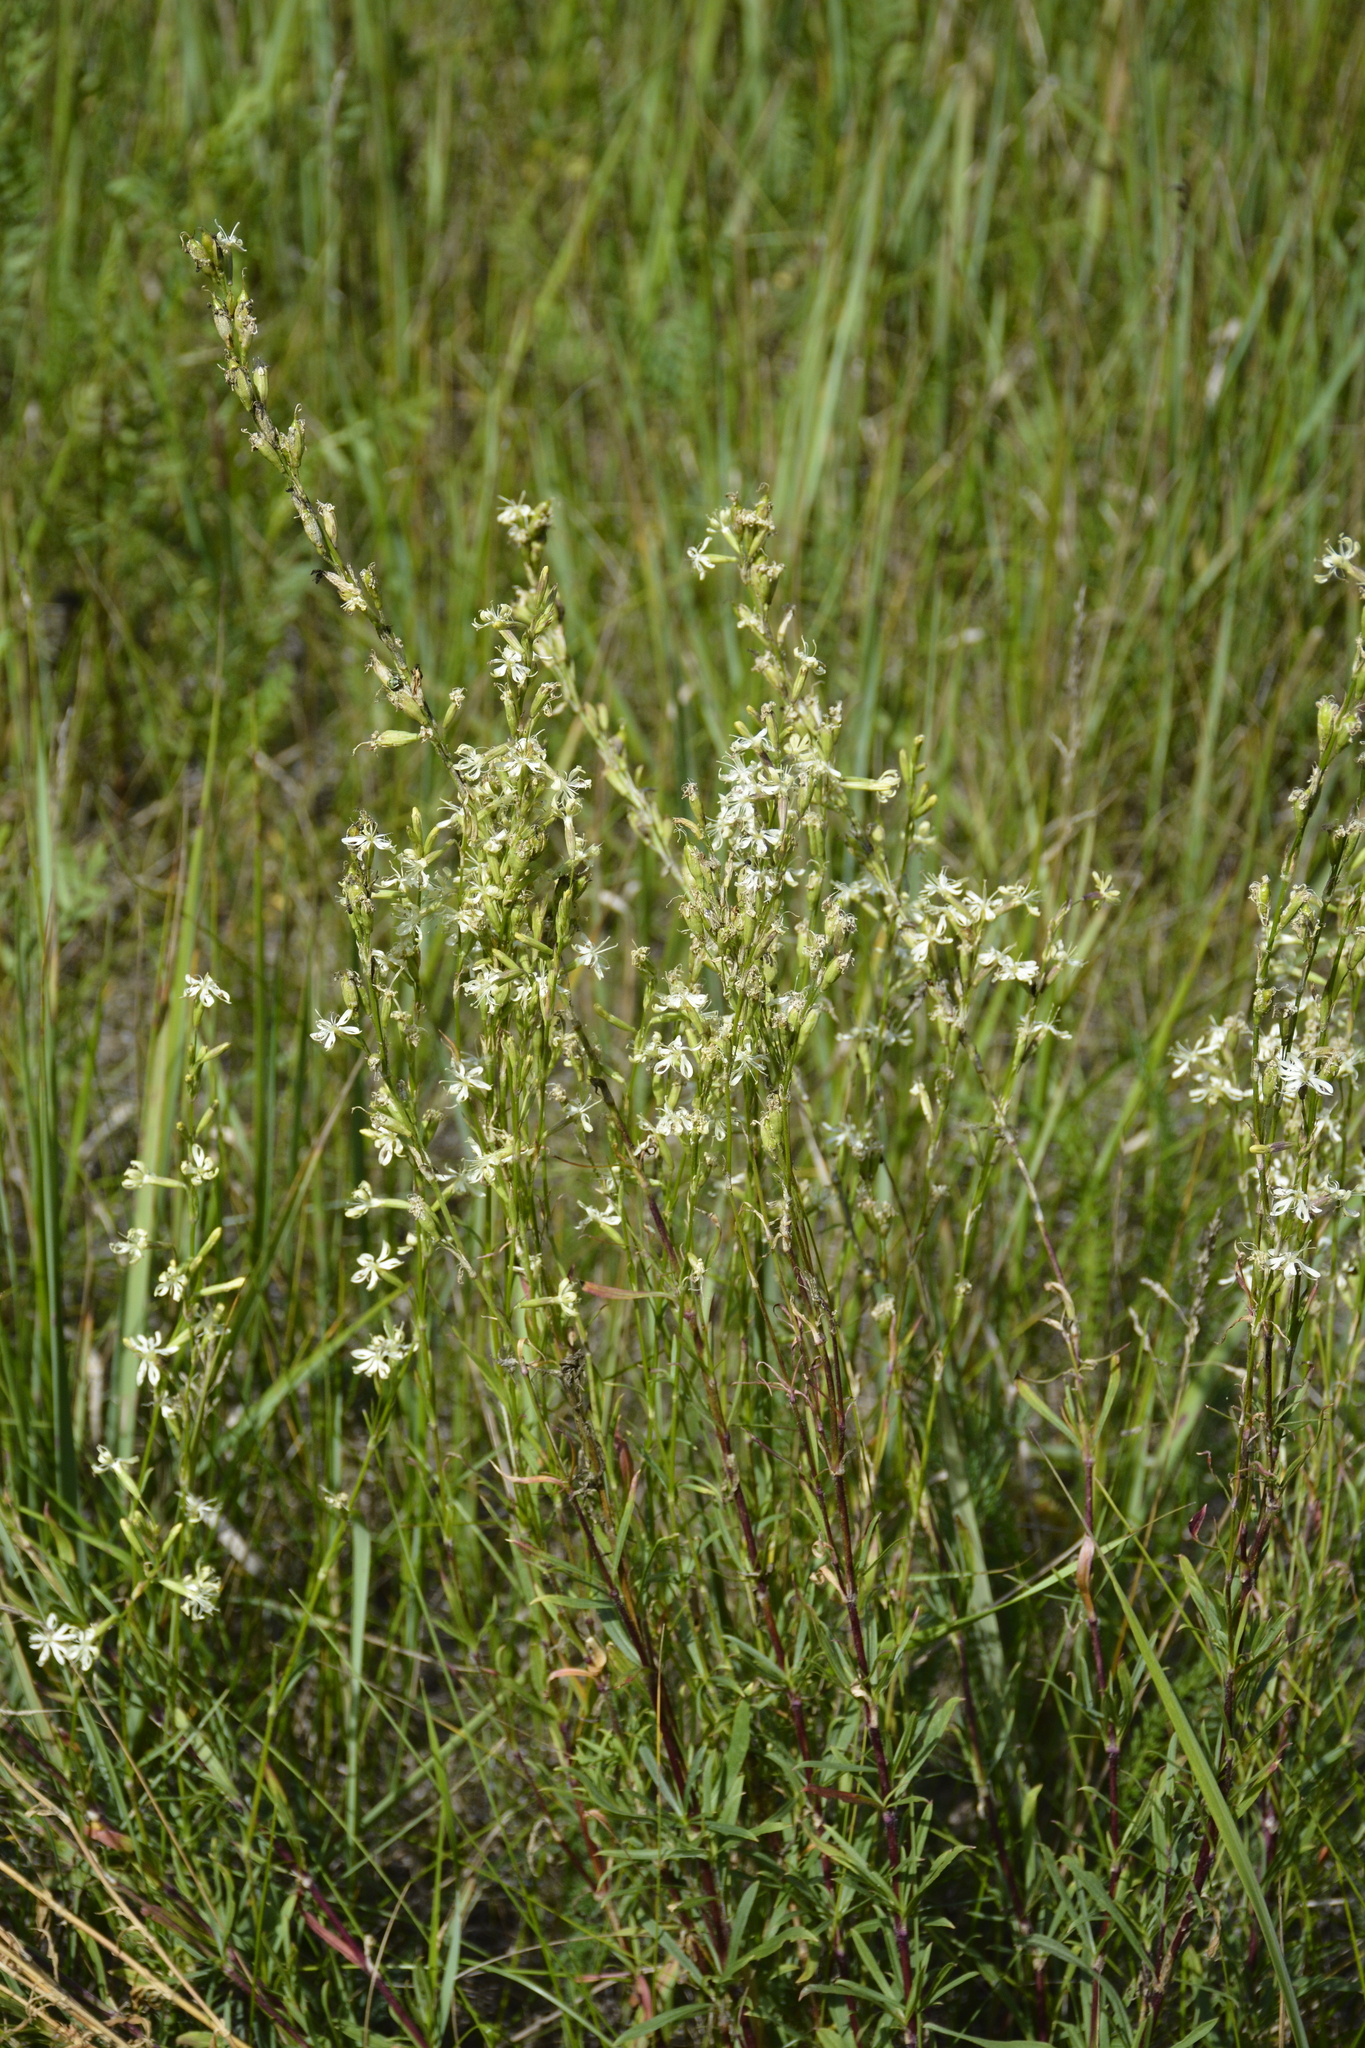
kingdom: Plantae
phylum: Tracheophyta
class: Magnoliopsida
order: Caryophyllales
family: Caryophyllaceae
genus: Silene
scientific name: Silene tatarica
